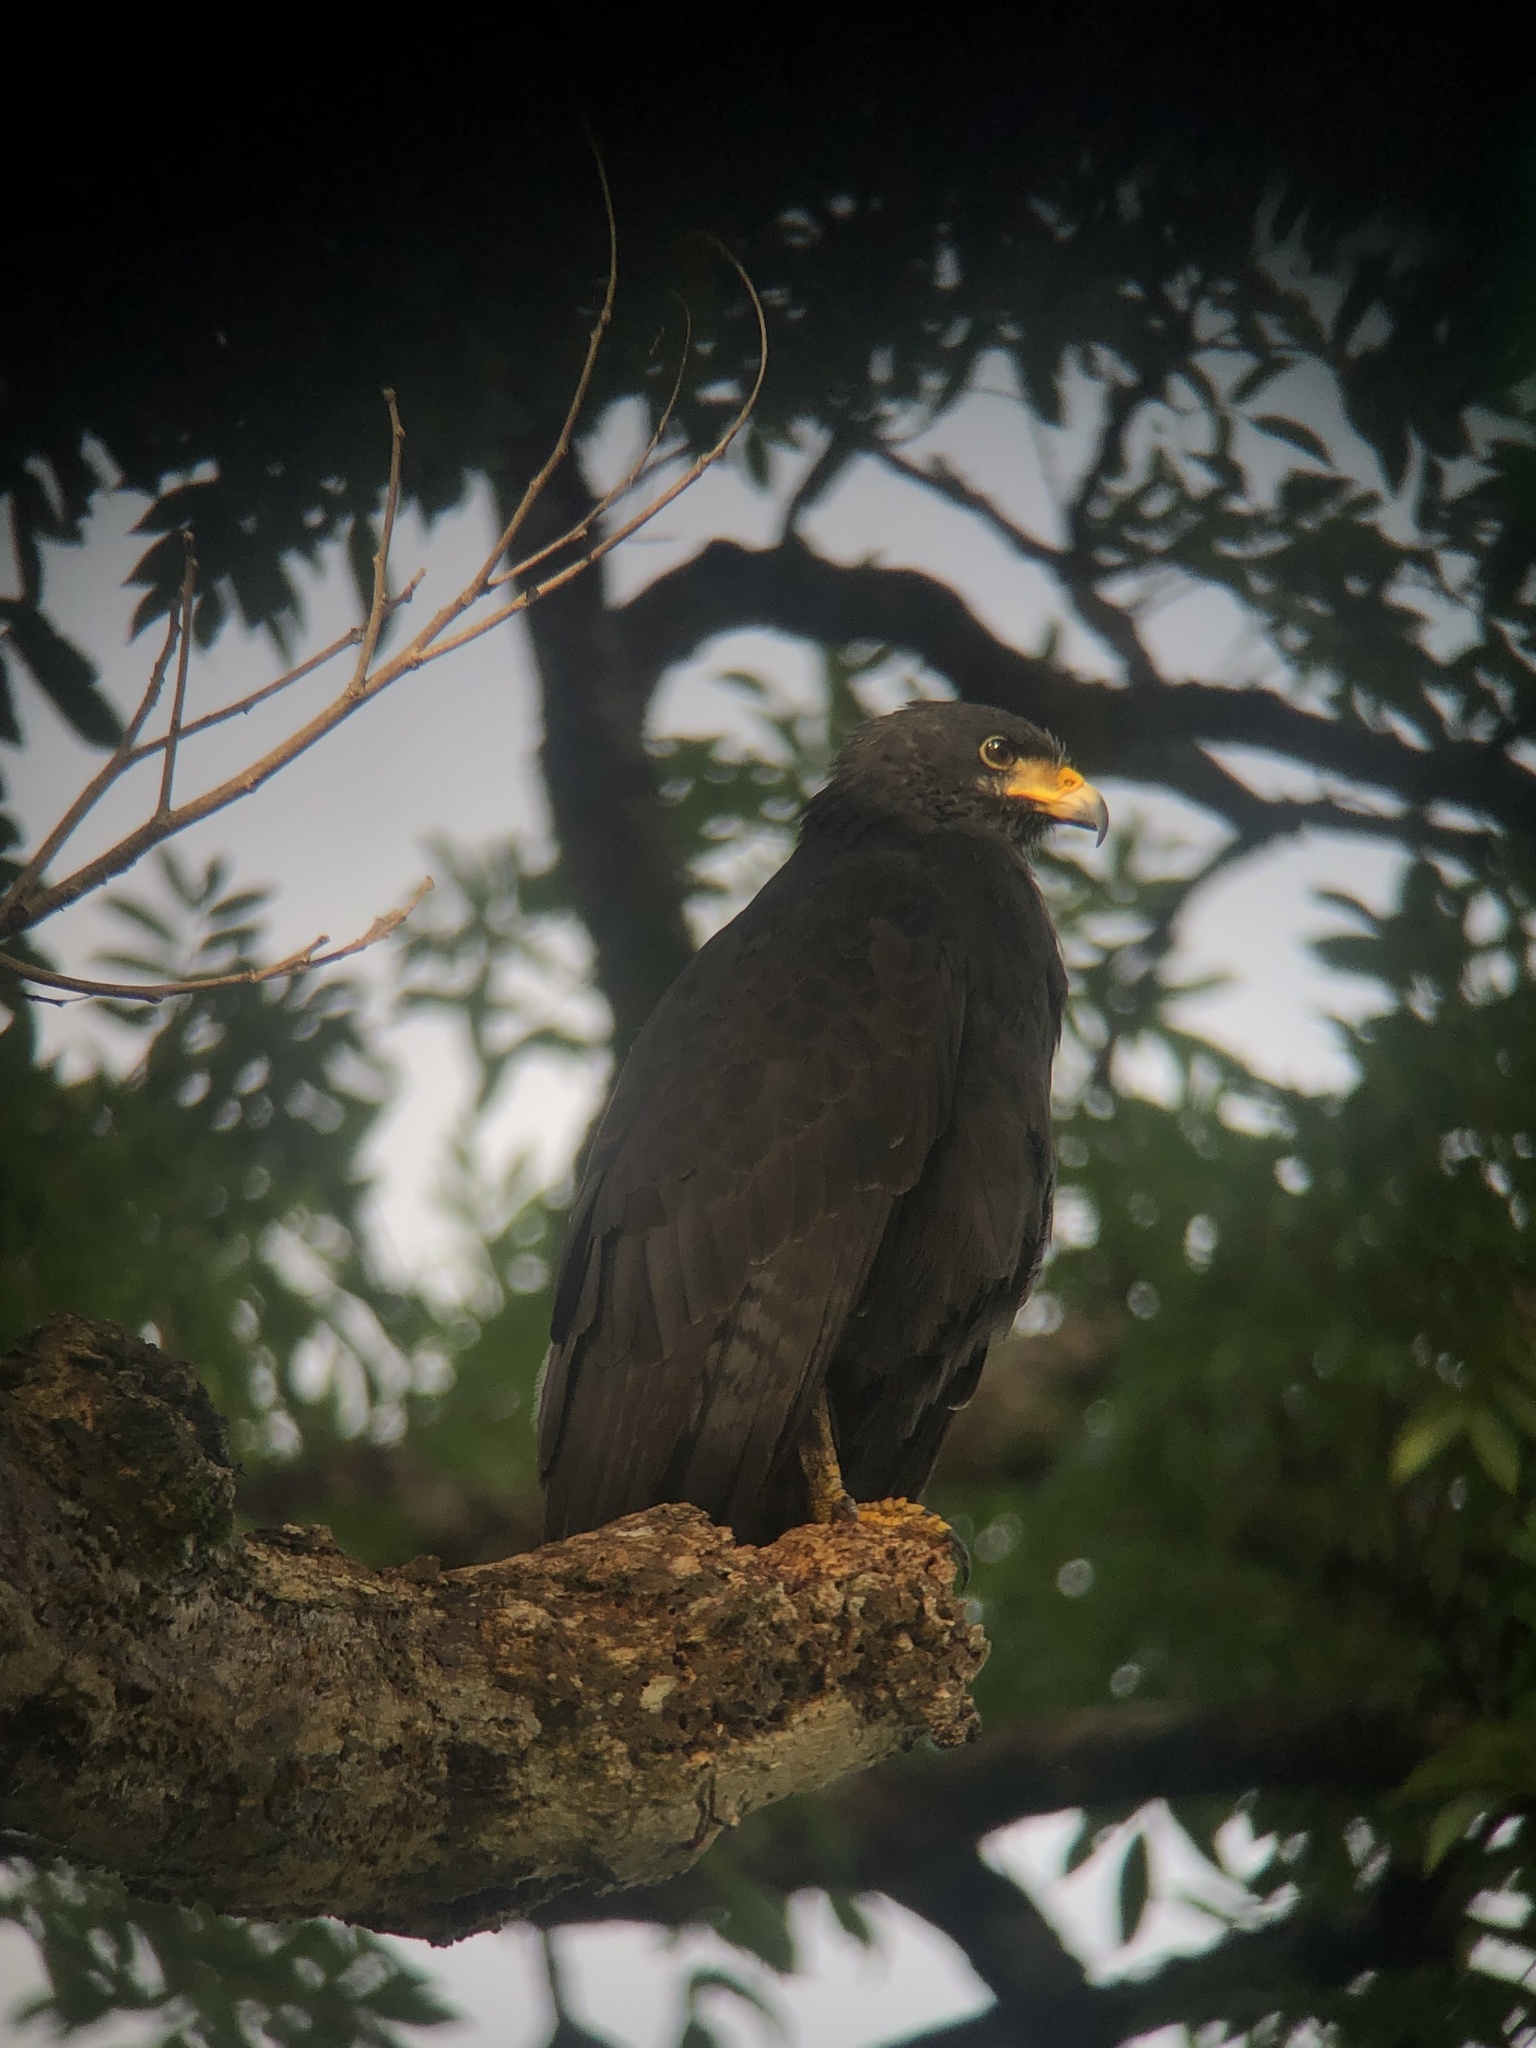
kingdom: Animalia
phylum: Chordata
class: Aves
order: Accipitriformes
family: Accipitridae
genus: Buteogallus
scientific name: Buteogallus anthracinus
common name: Common black hawk
